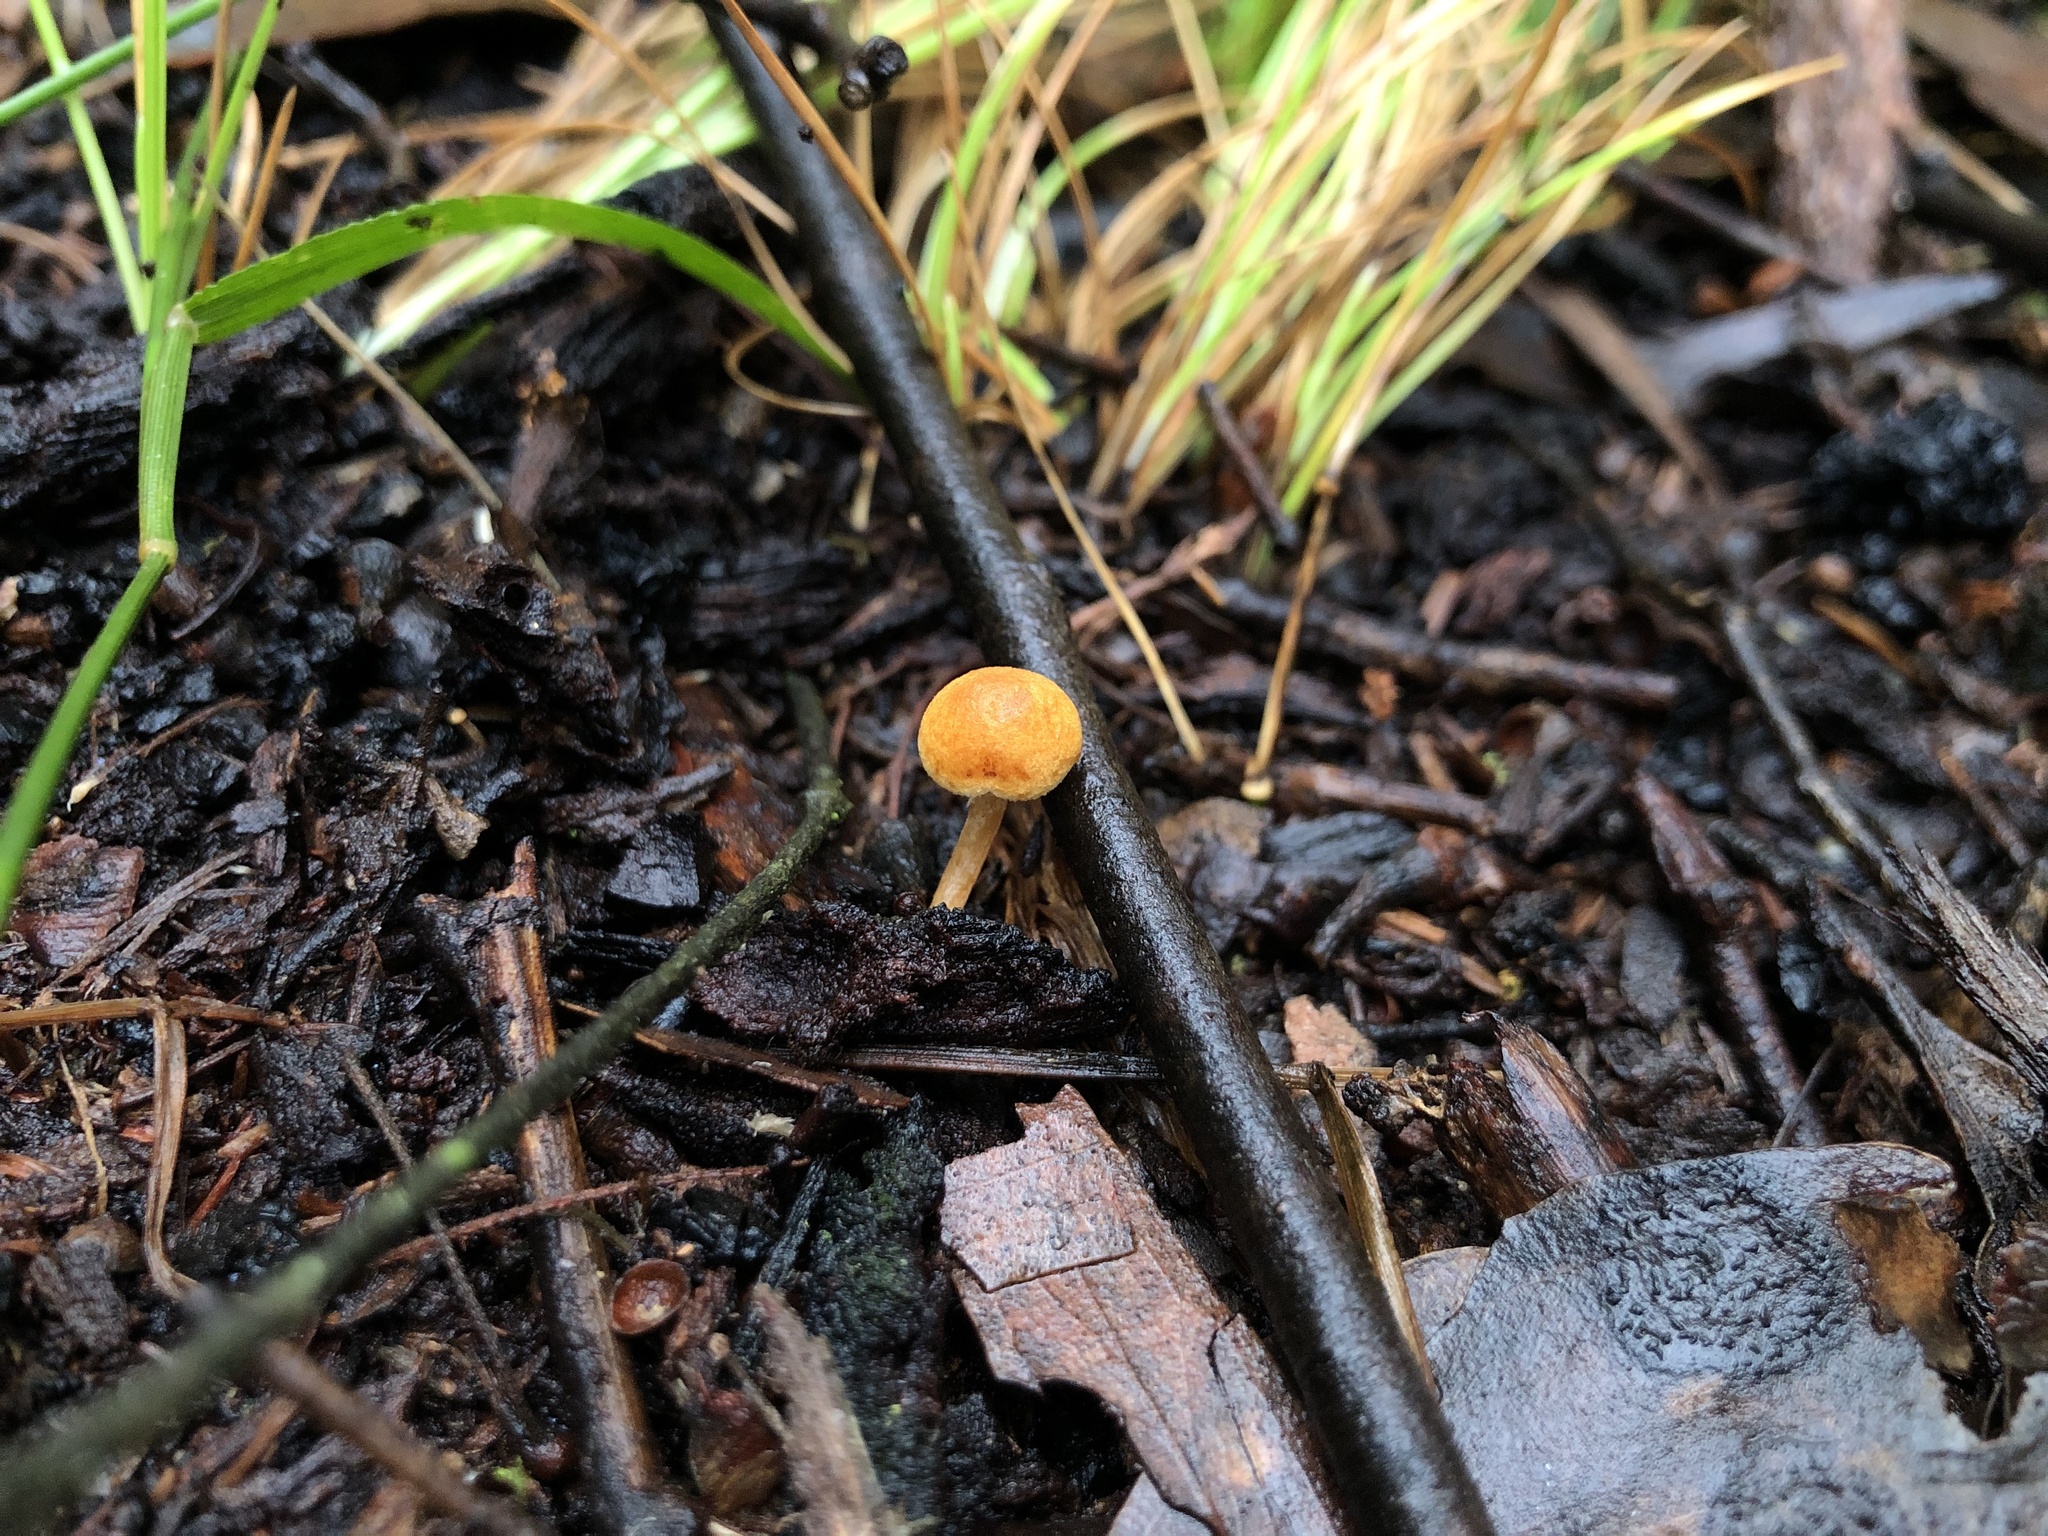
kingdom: Fungi
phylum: Basidiomycota
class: Agaricomycetes
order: Agaricales
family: Strophariaceae
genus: Pholiota
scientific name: Pholiota eucalyptorum
